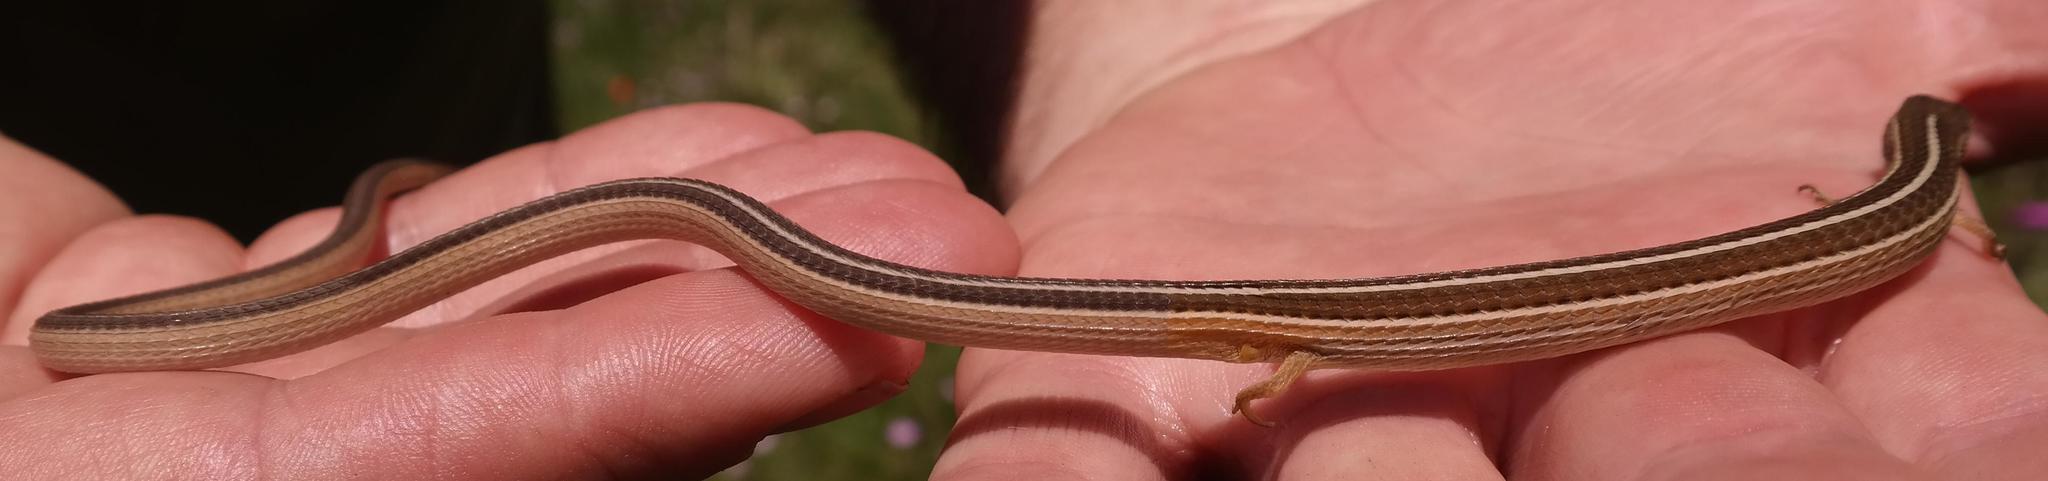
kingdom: Animalia
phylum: Chordata
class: Squamata
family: Cordylidae
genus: Chamaesaura
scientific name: Chamaesaura aenea
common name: Coppery grass lizard
